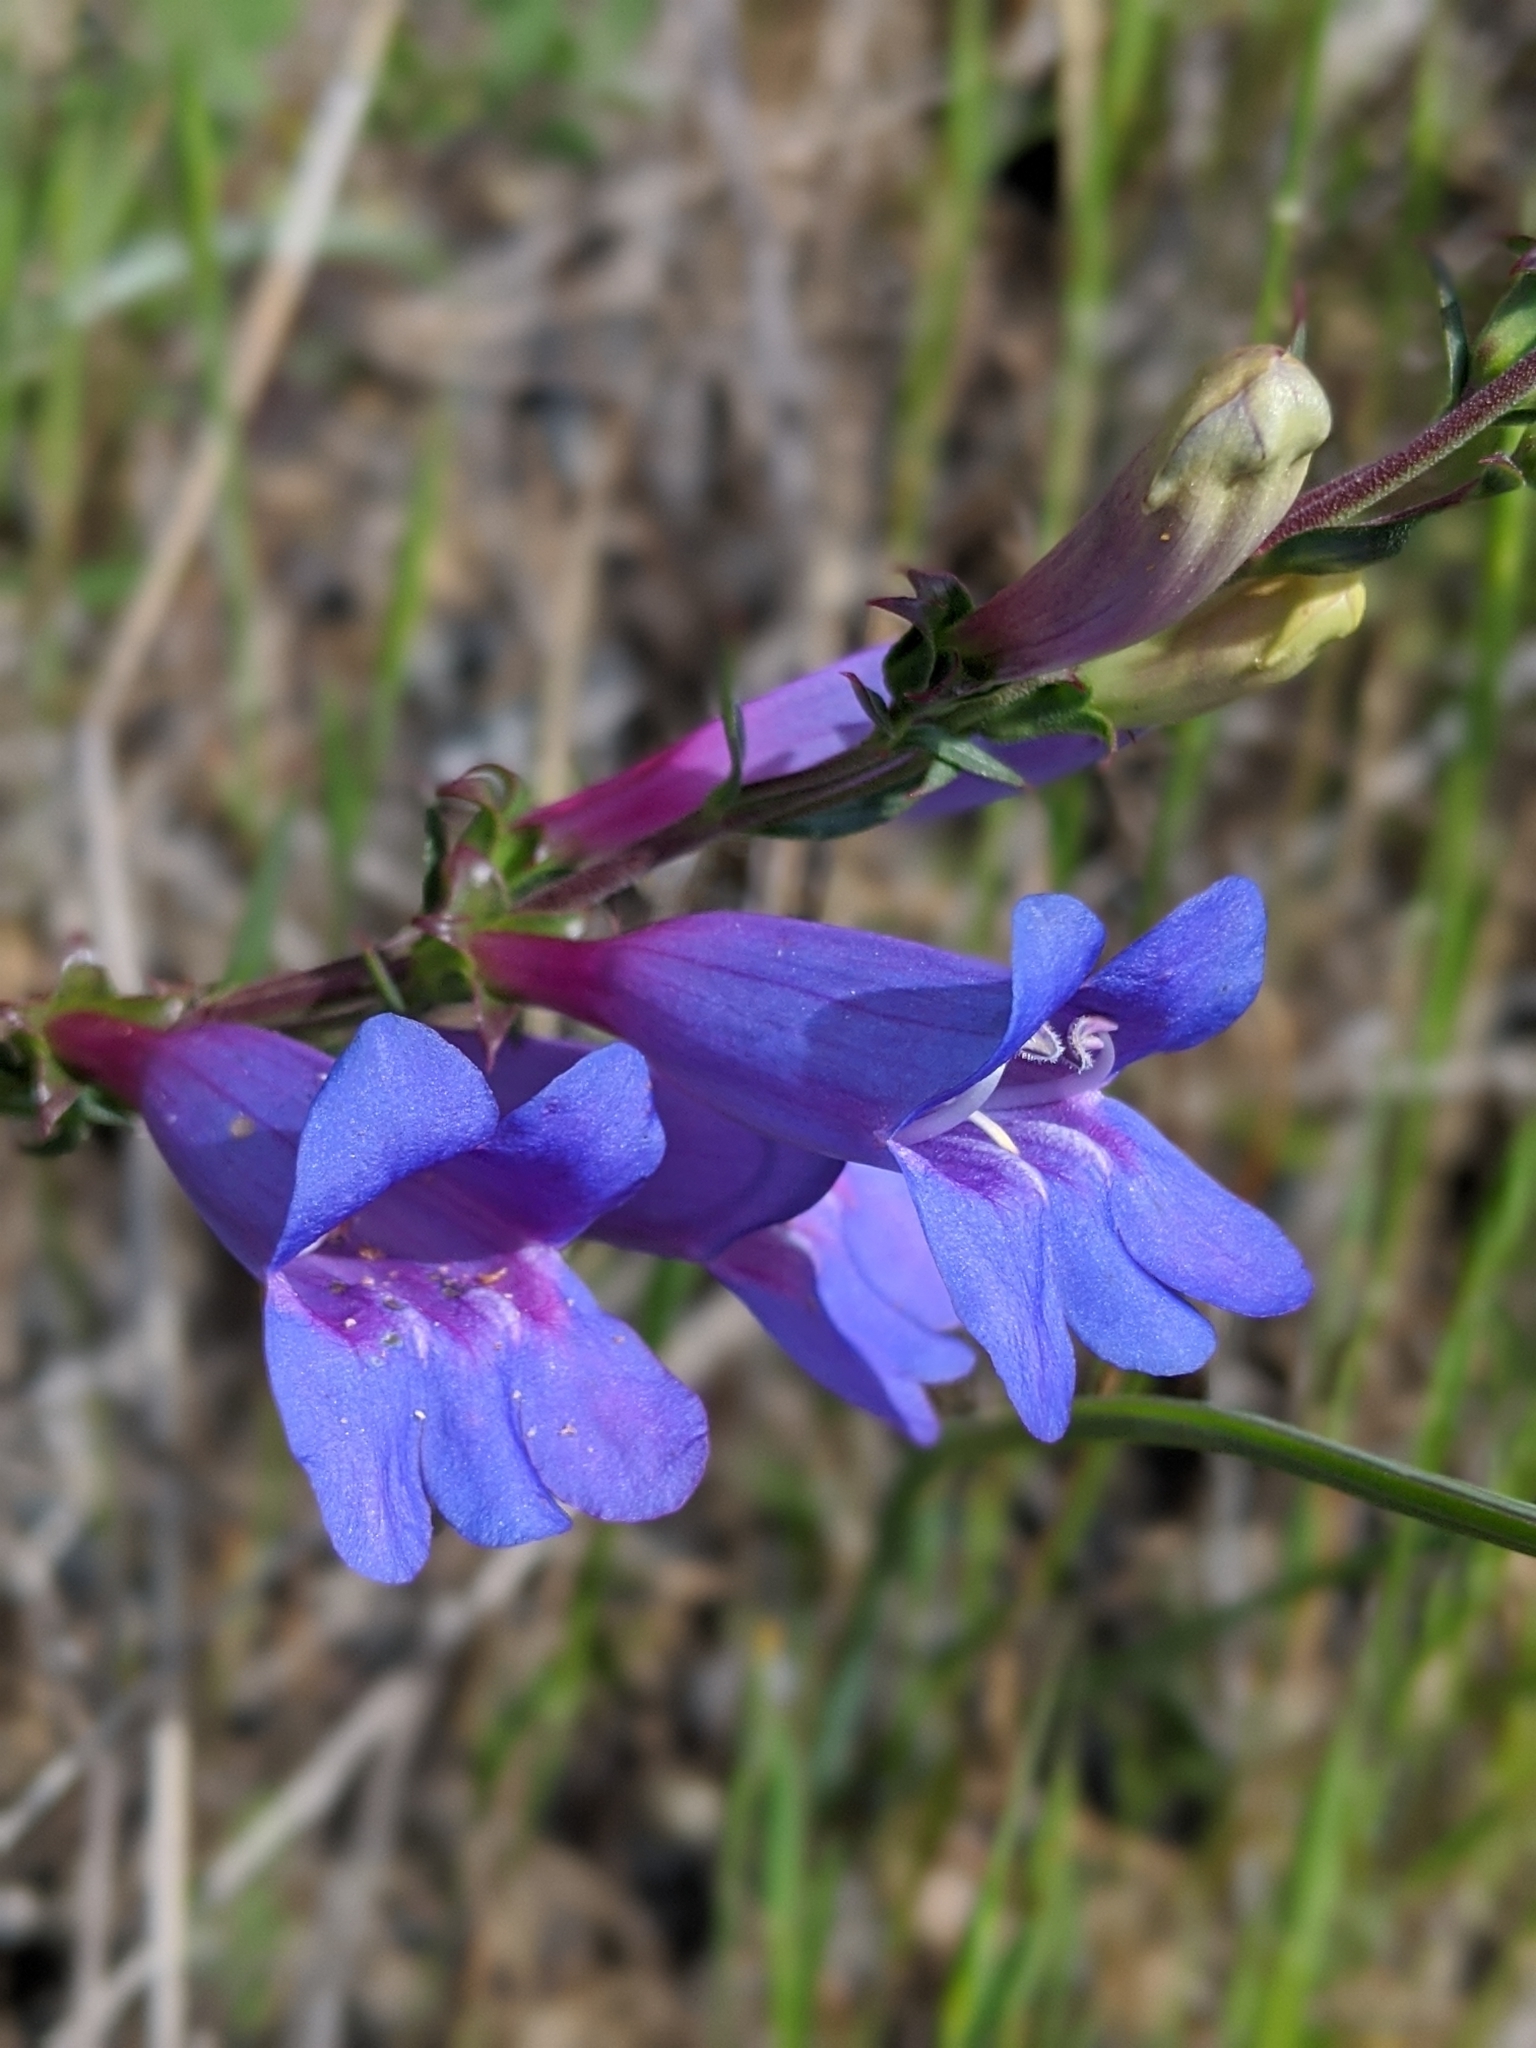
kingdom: Plantae
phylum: Tracheophyta
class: Magnoliopsida
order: Lamiales
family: Plantaginaceae
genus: Penstemon
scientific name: Penstemon heterophyllus
